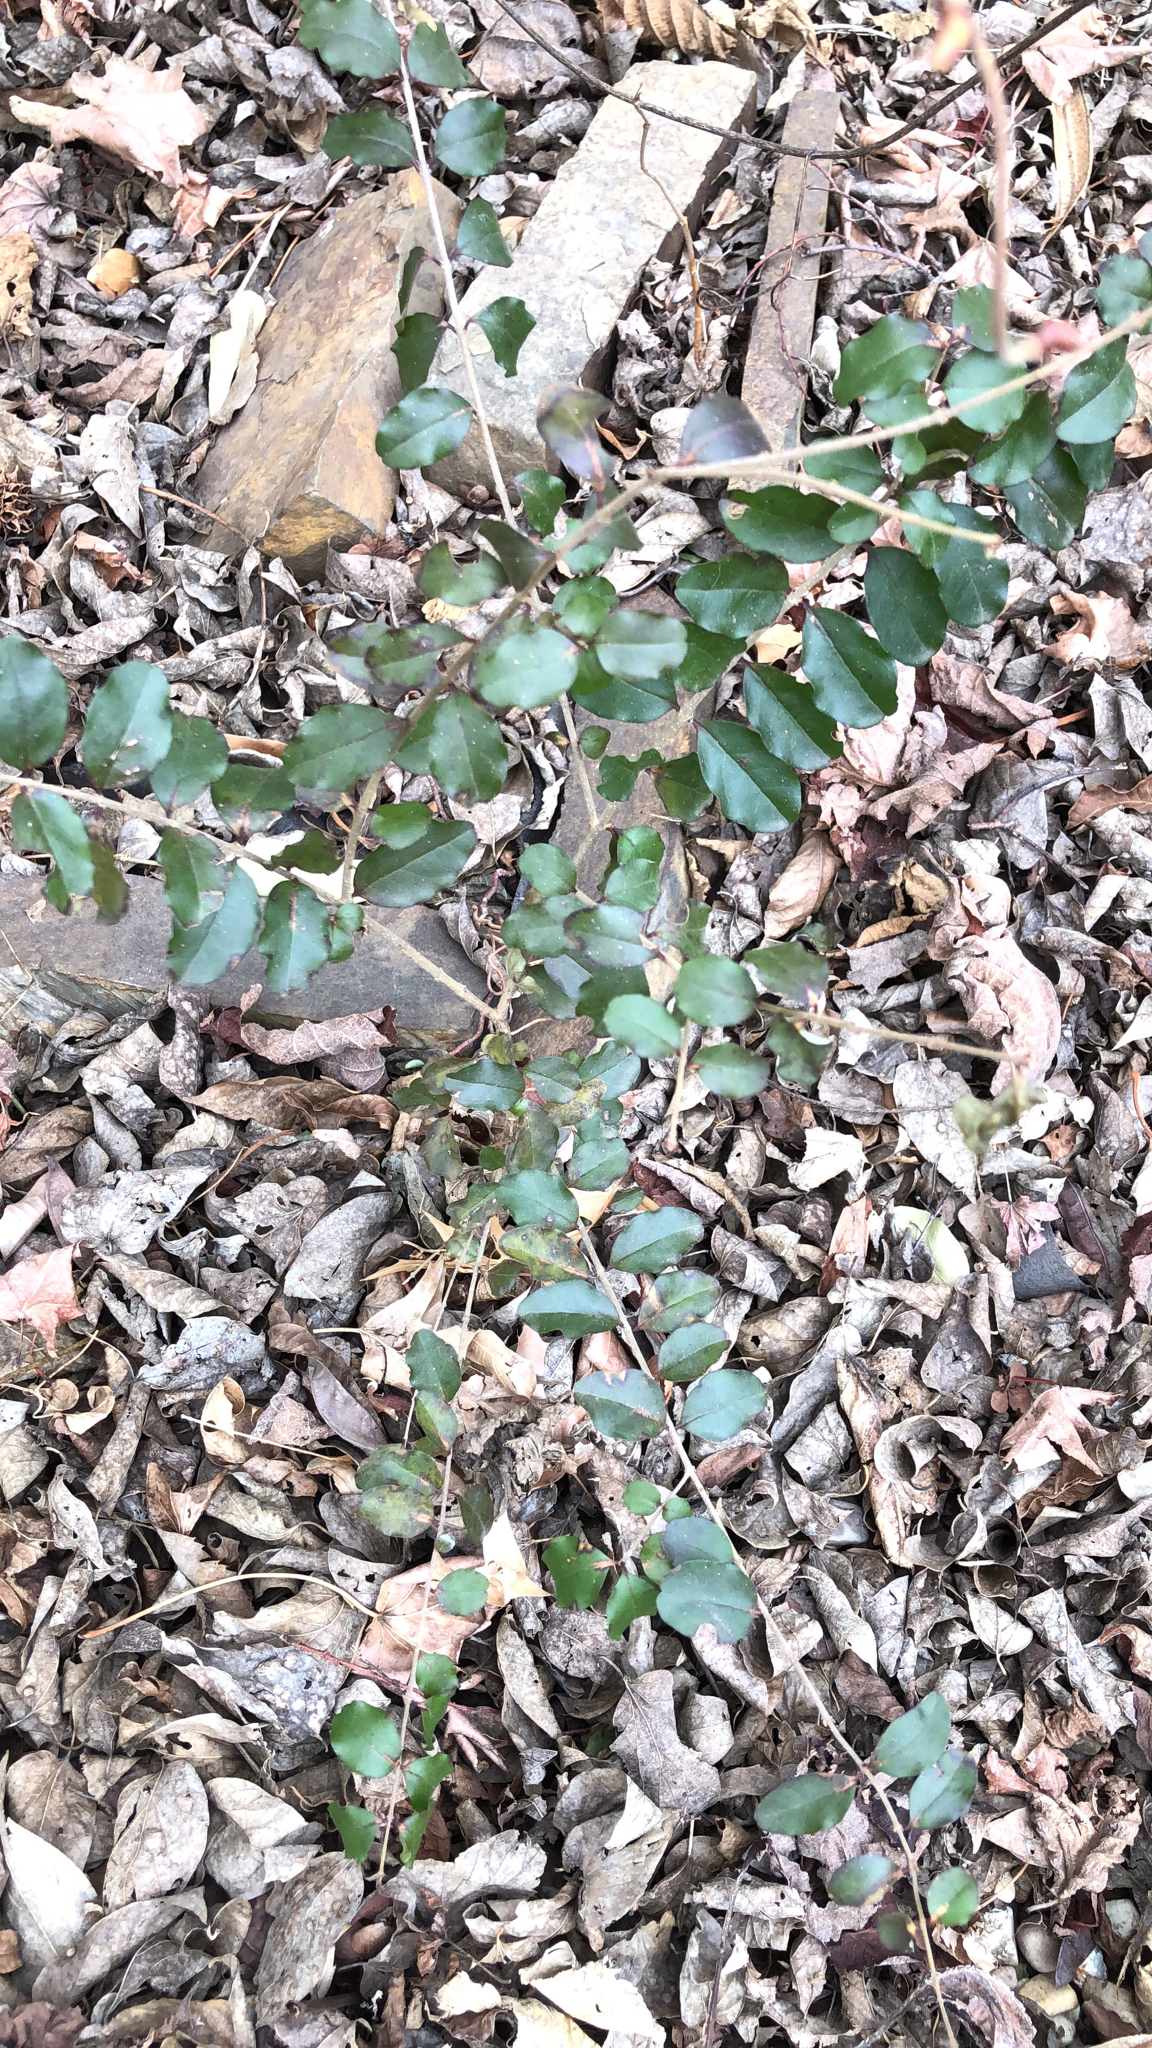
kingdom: Plantae
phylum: Tracheophyta
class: Magnoliopsida
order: Lamiales
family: Oleaceae
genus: Ligustrum
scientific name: Ligustrum sinense
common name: Chinese privet
